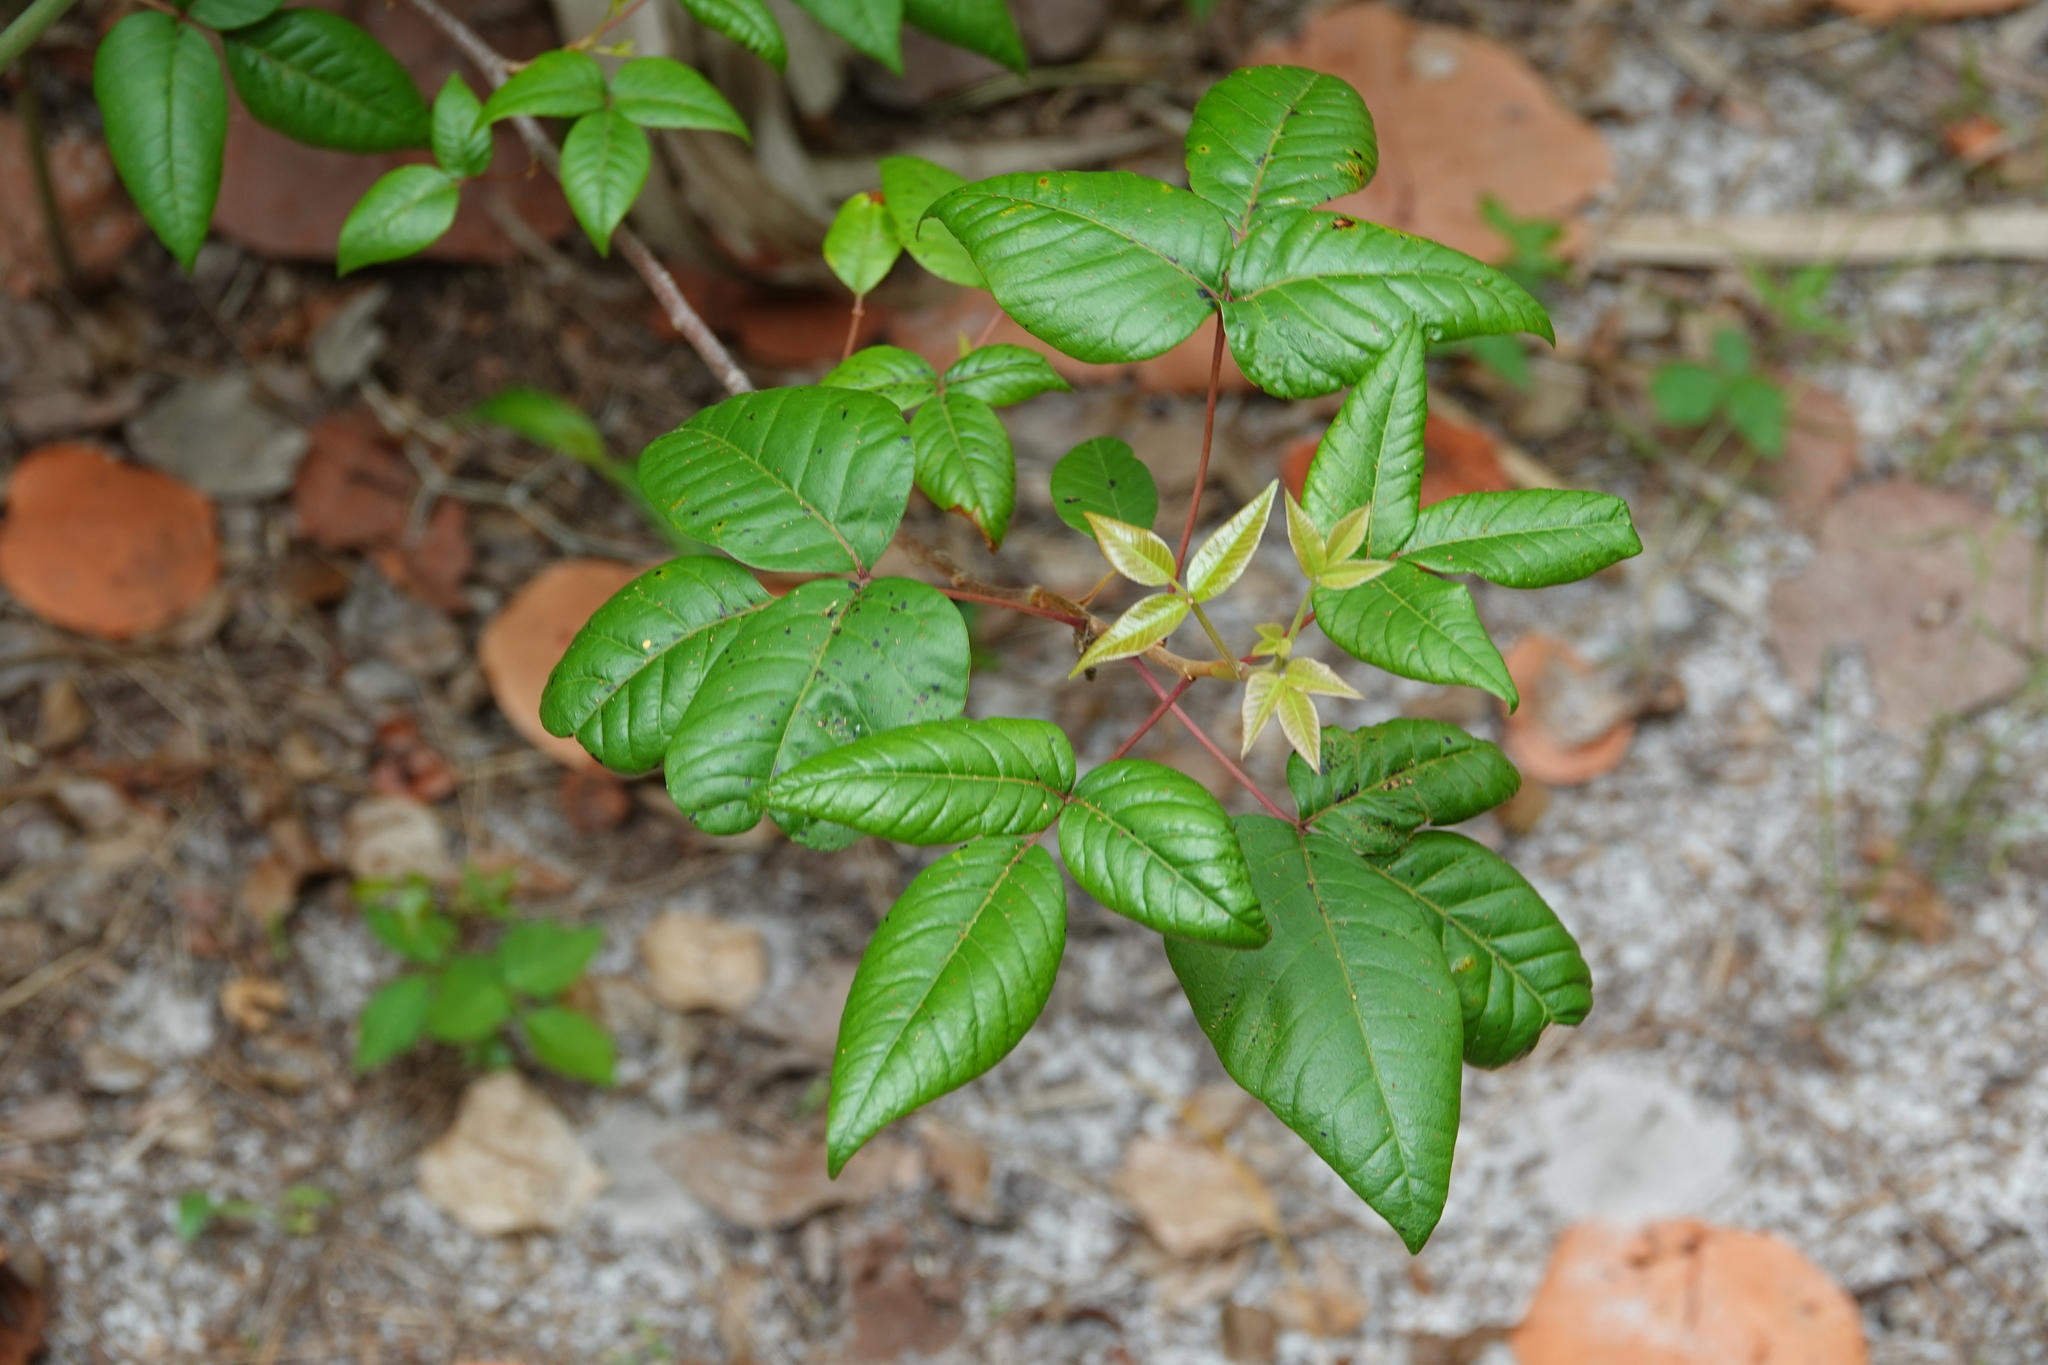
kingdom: Plantae
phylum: Tracheophyta
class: Magnoliopsida
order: Sapindales
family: Anacardiaceae
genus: Toxicodendron
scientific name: Toxicodendron radicans
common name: Poison ivy
